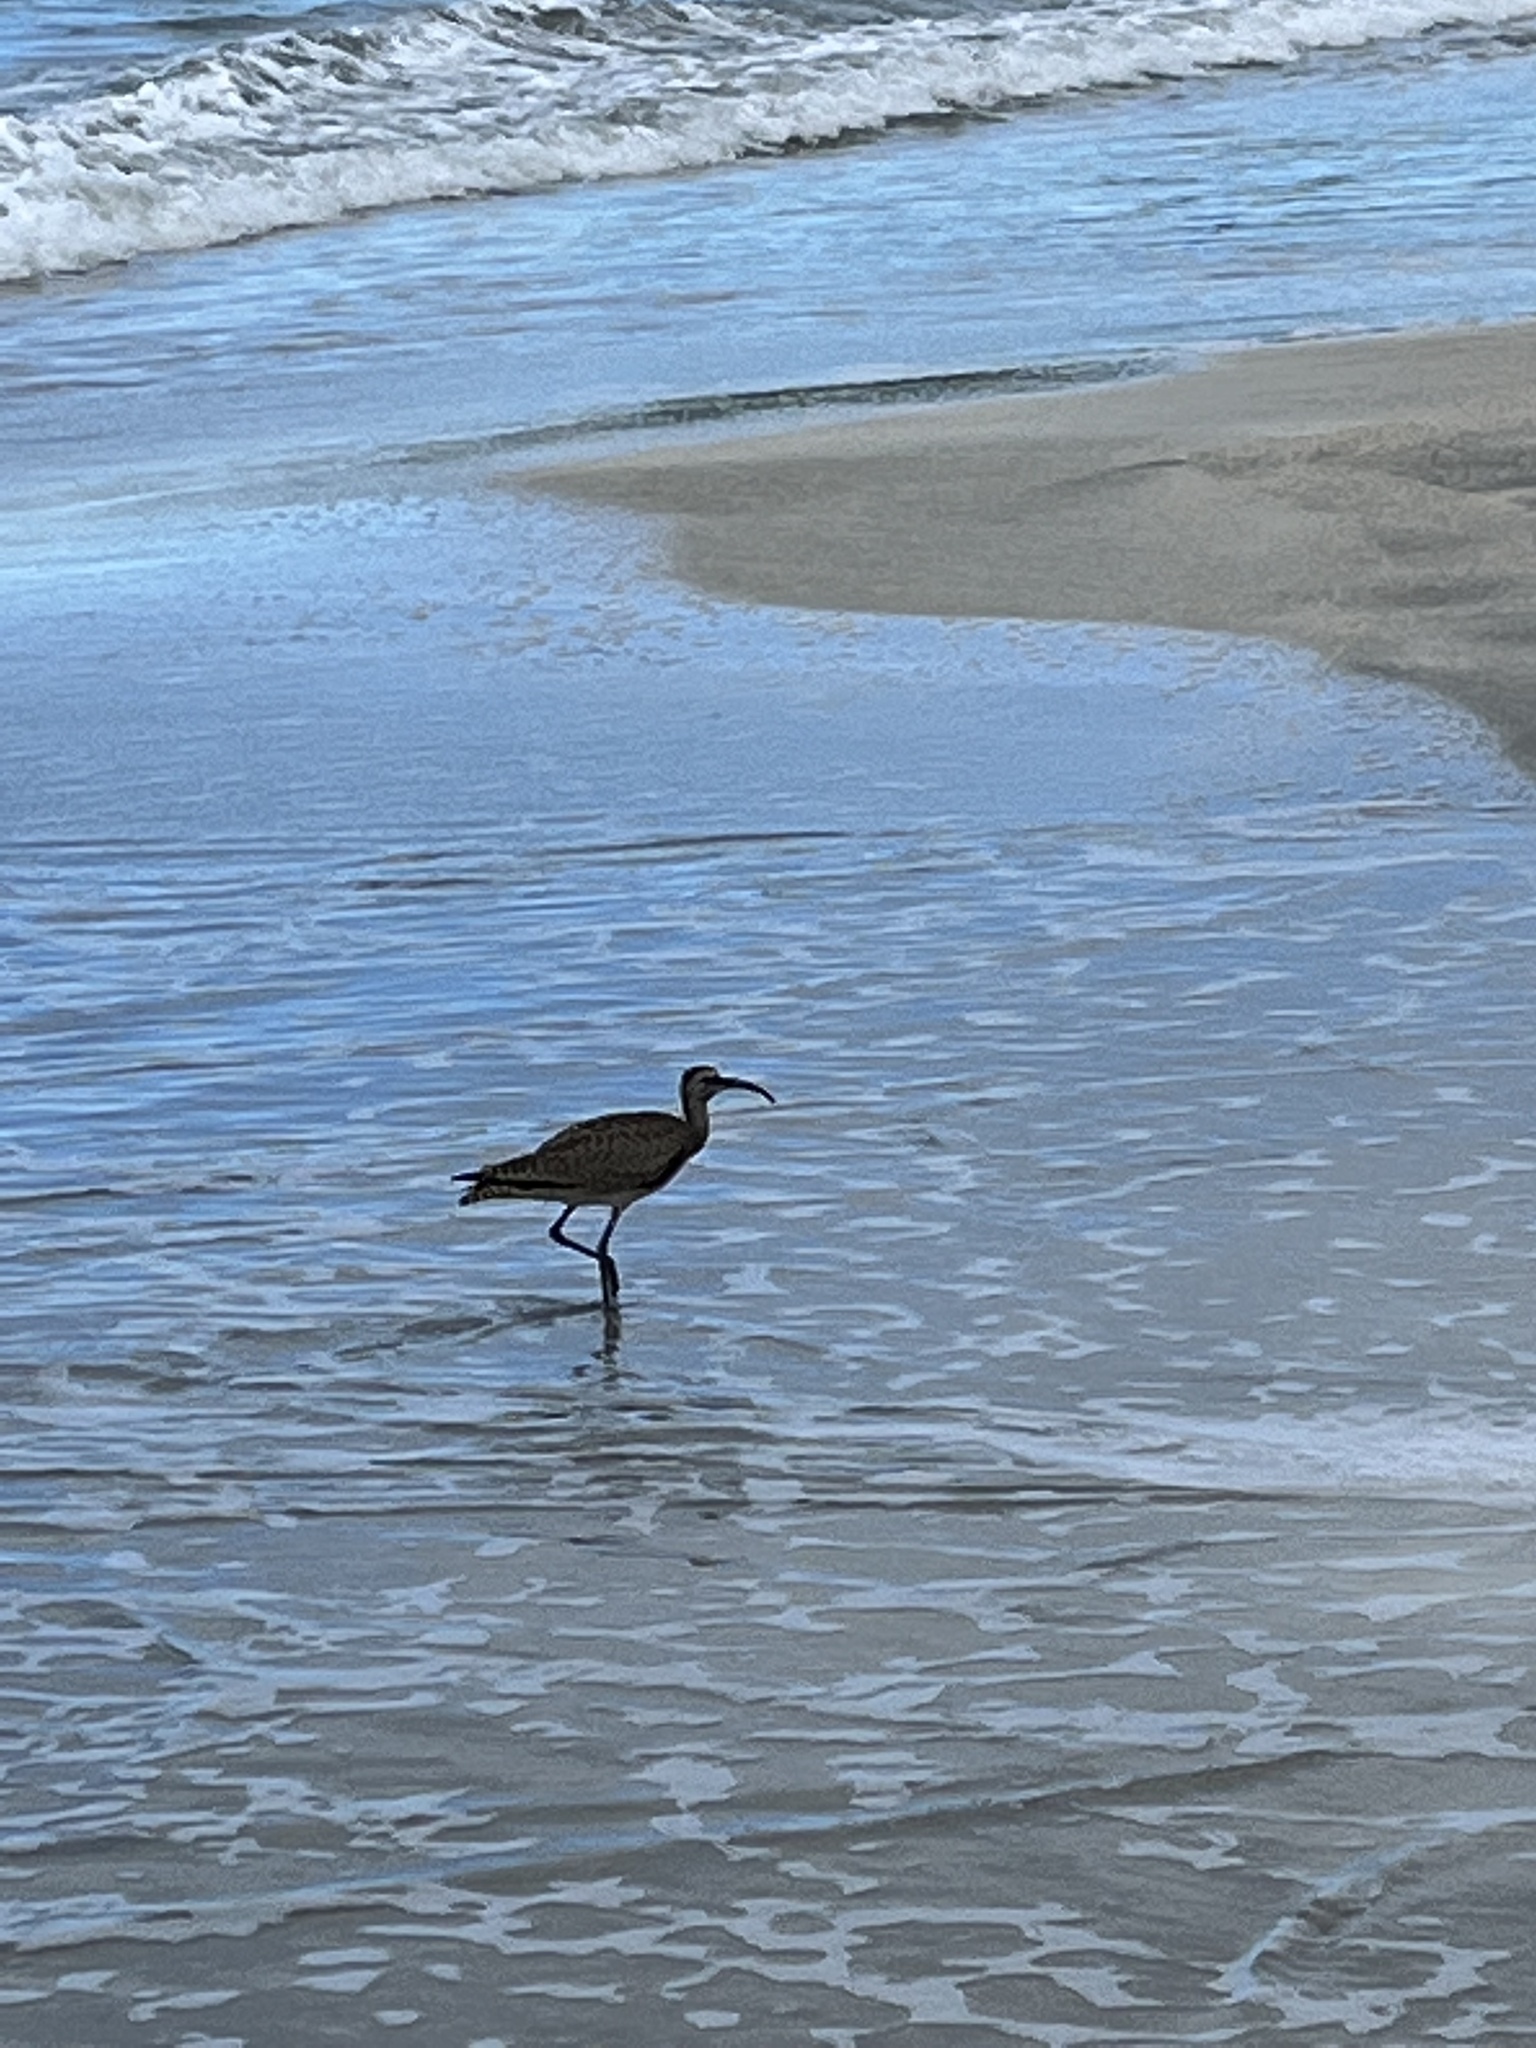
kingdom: Animalia
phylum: Chordata
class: Aves
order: Charadriiformes
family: Scolopacidae
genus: Numenius
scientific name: Numenius phaeopus
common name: Whimbrel
